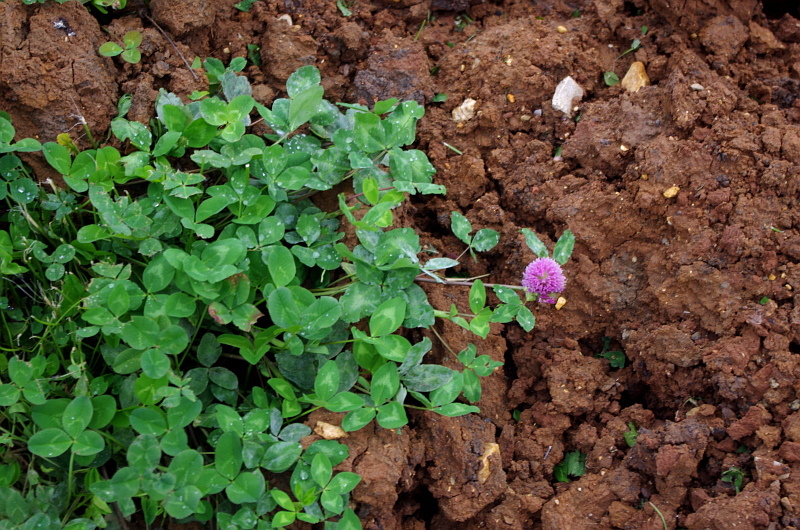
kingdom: Plantae
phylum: Tracheophyta
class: Magnoliopsida
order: Fabales
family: Fabaceae
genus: Trifolium
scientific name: Trifolium pratense
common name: Red clover
